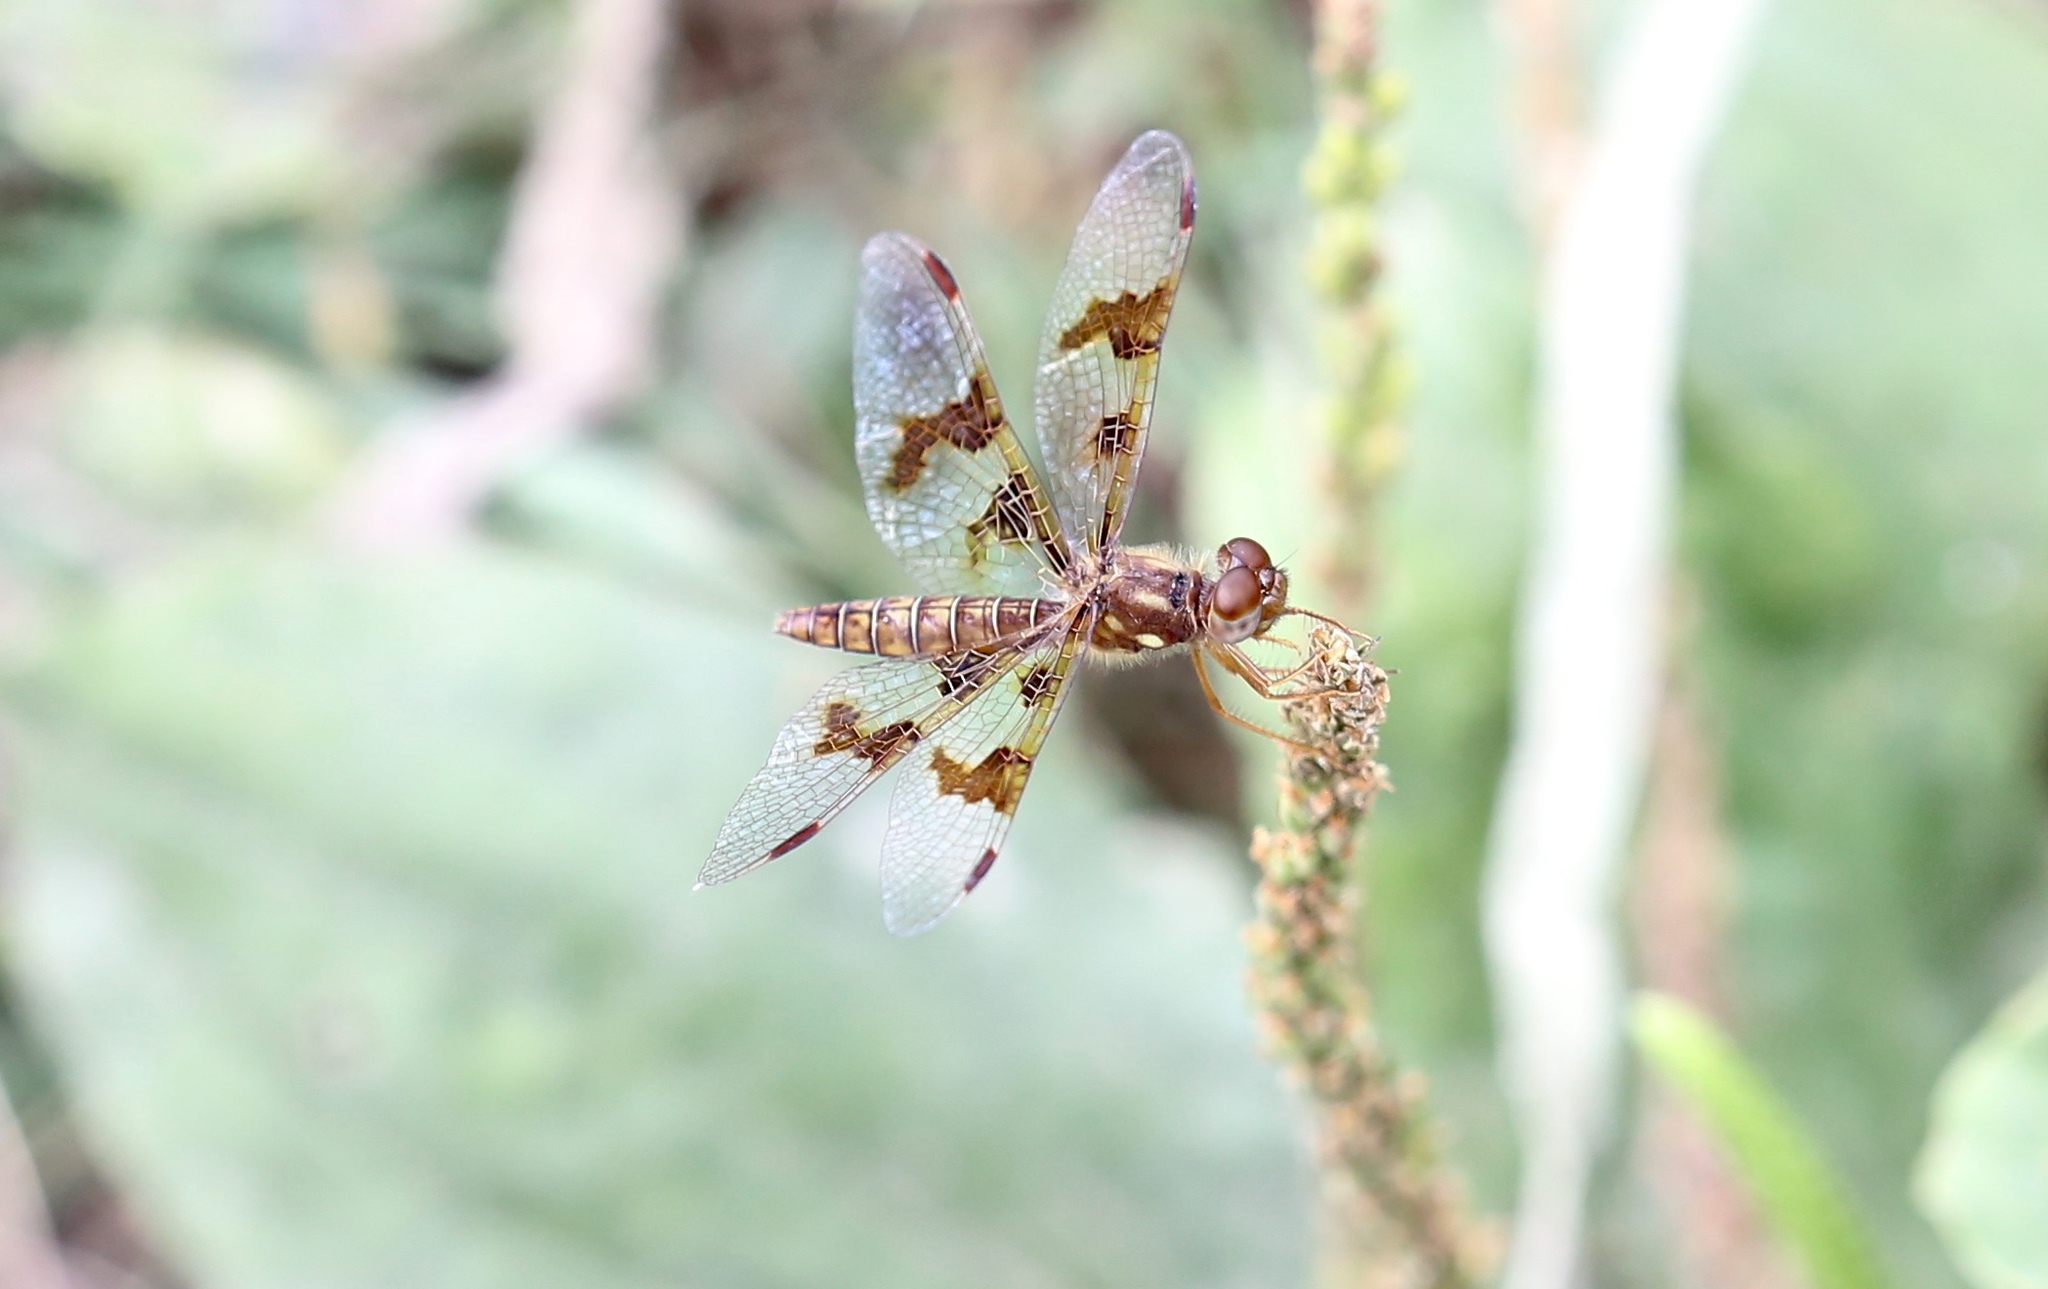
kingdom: Animalia
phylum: Arthropoda
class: Insecta
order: Odonata
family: Libellulidae
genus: Perithemis
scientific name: Perithemis tenera
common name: Eastern amberwing
